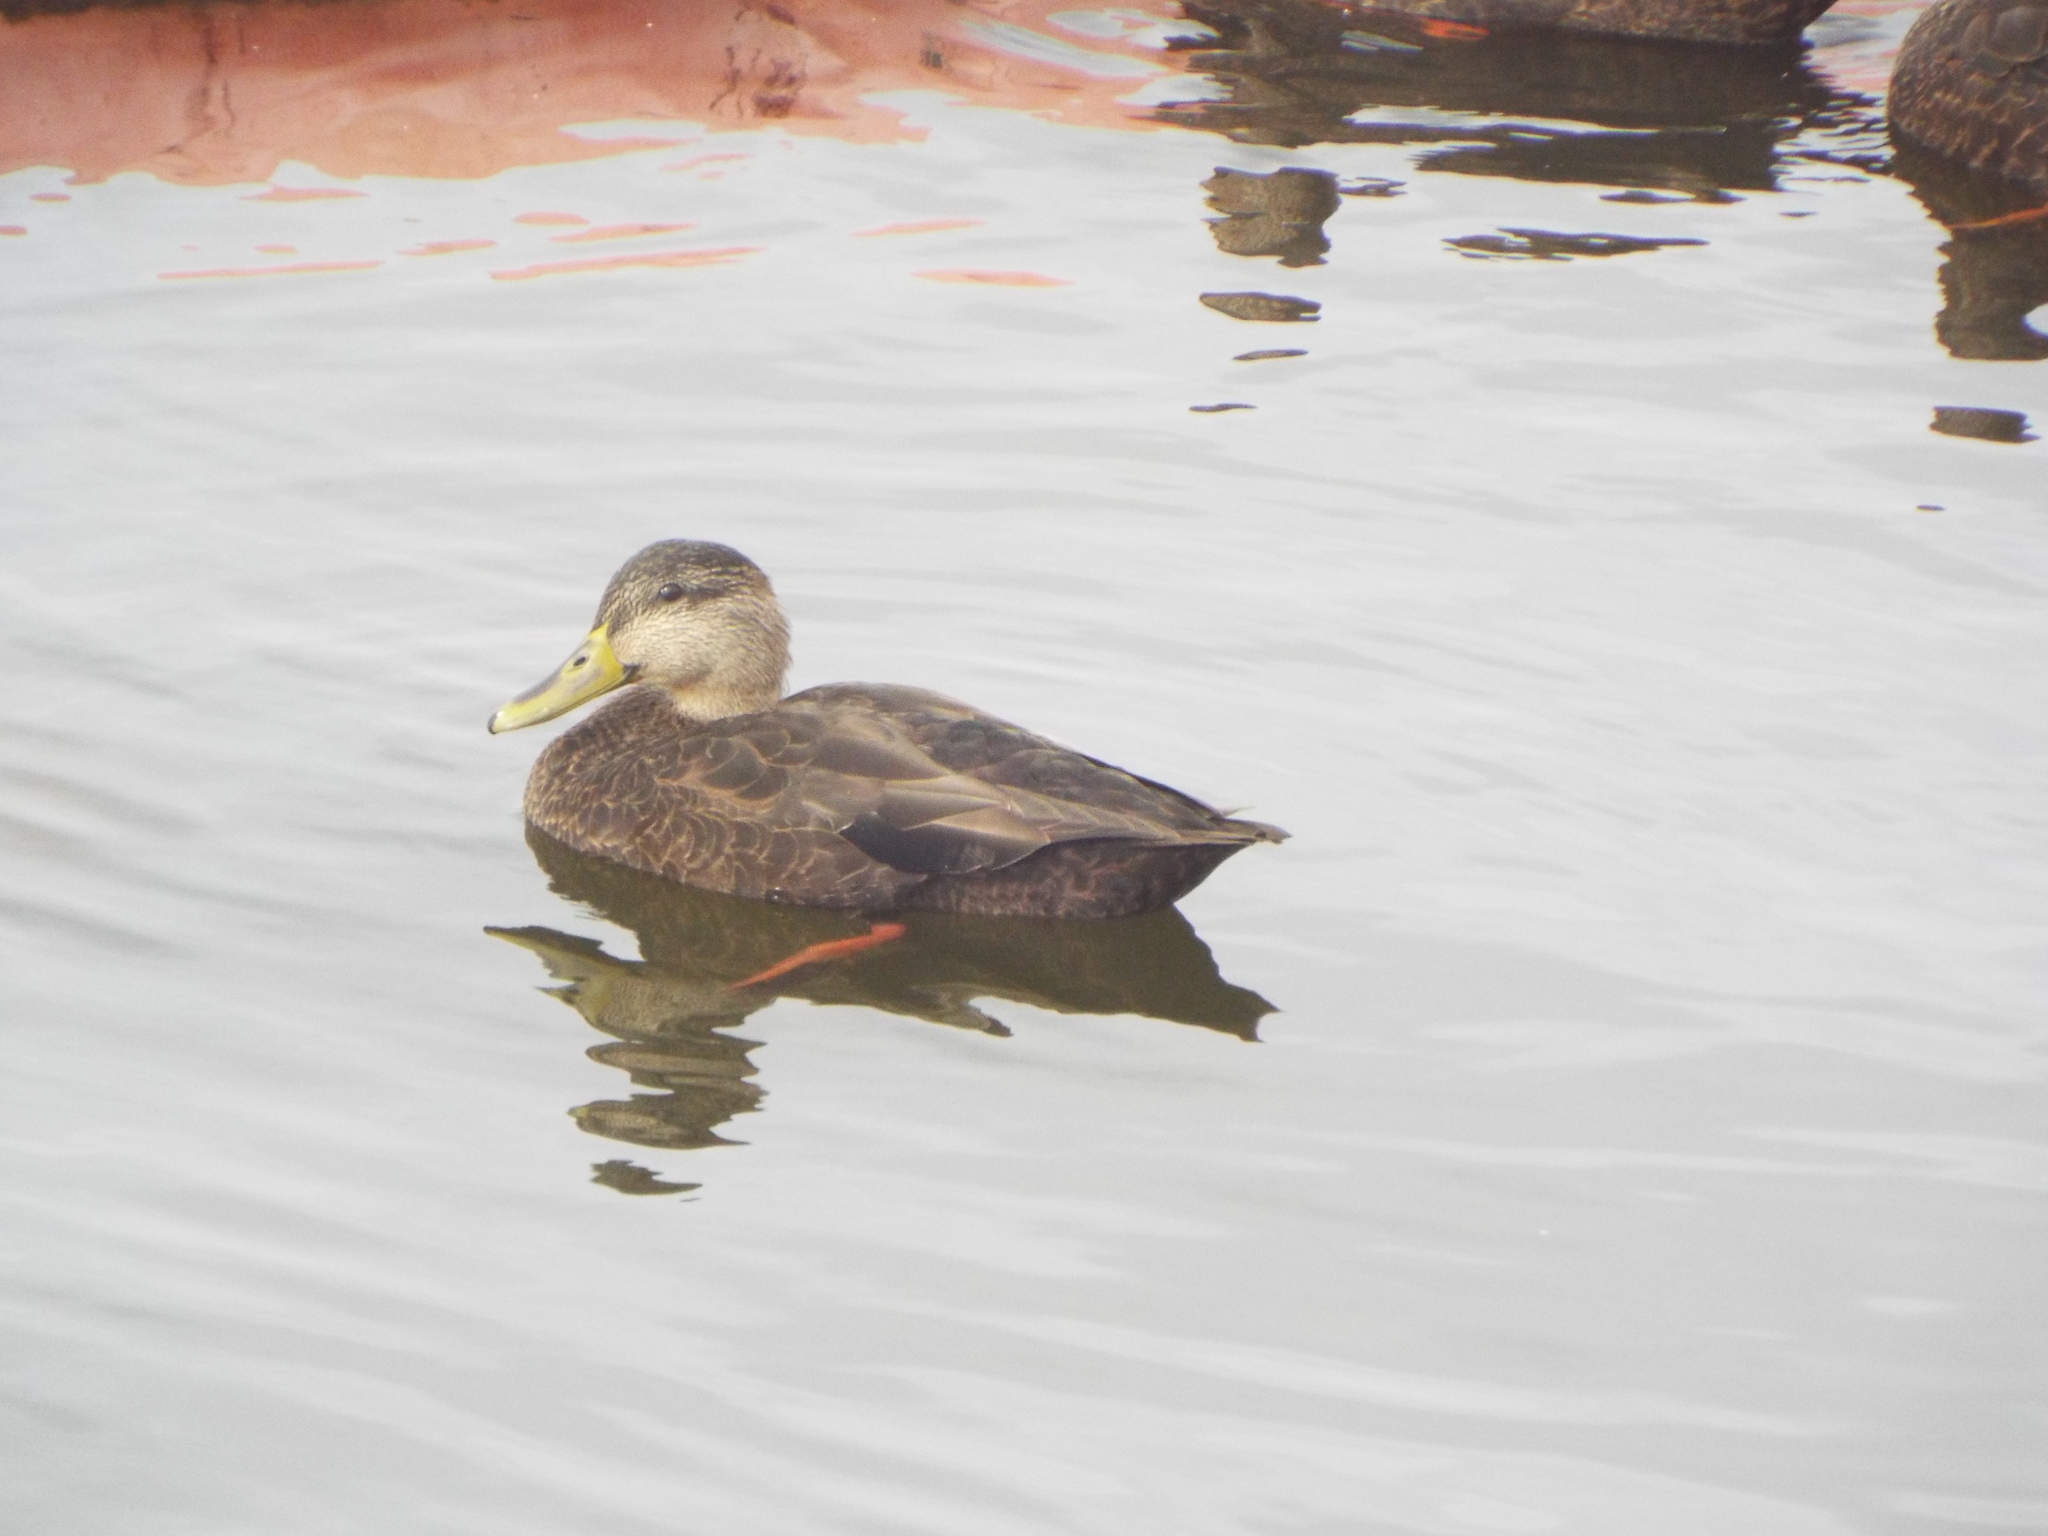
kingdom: Animalia
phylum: Chordata
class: Aves
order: Anseriformes
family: Anatidae
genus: Anas
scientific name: Anas rubripes
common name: American black duck
